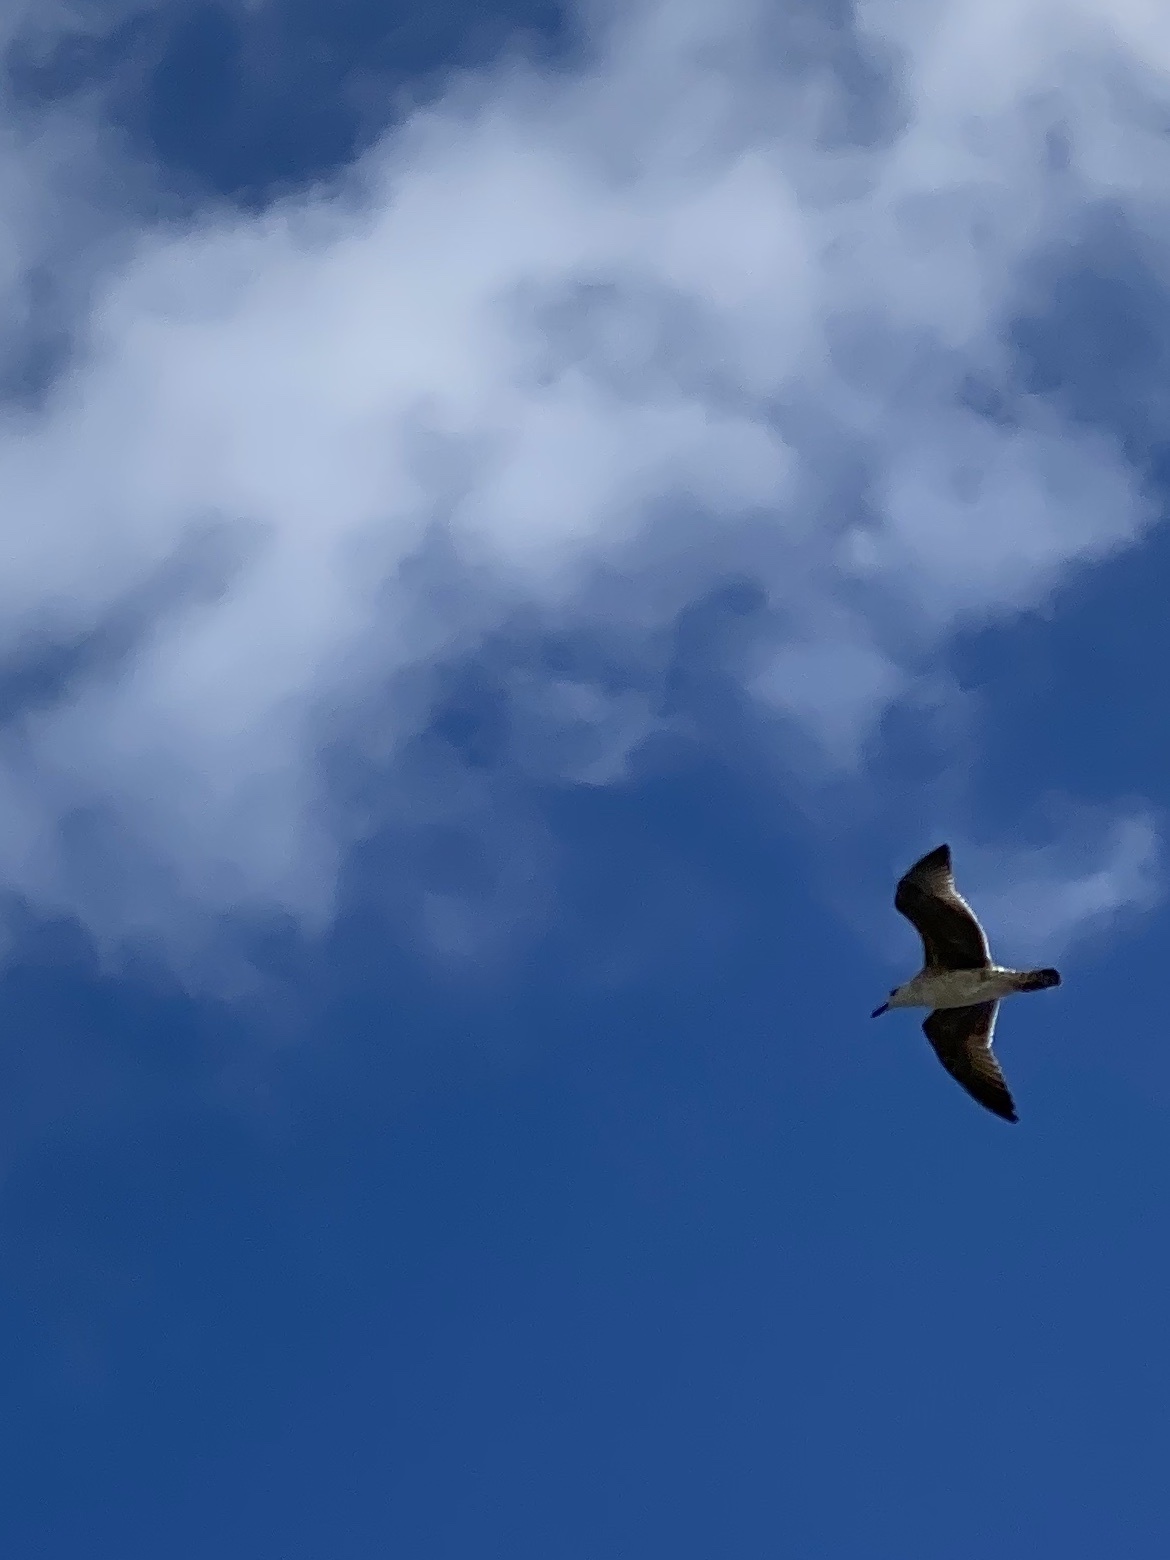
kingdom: Animalia
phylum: Chordata
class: Aves
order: Charadriiformes
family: Laridae
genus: Leucophaeus
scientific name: Leucophaeus atricilla
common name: Laughing gull
